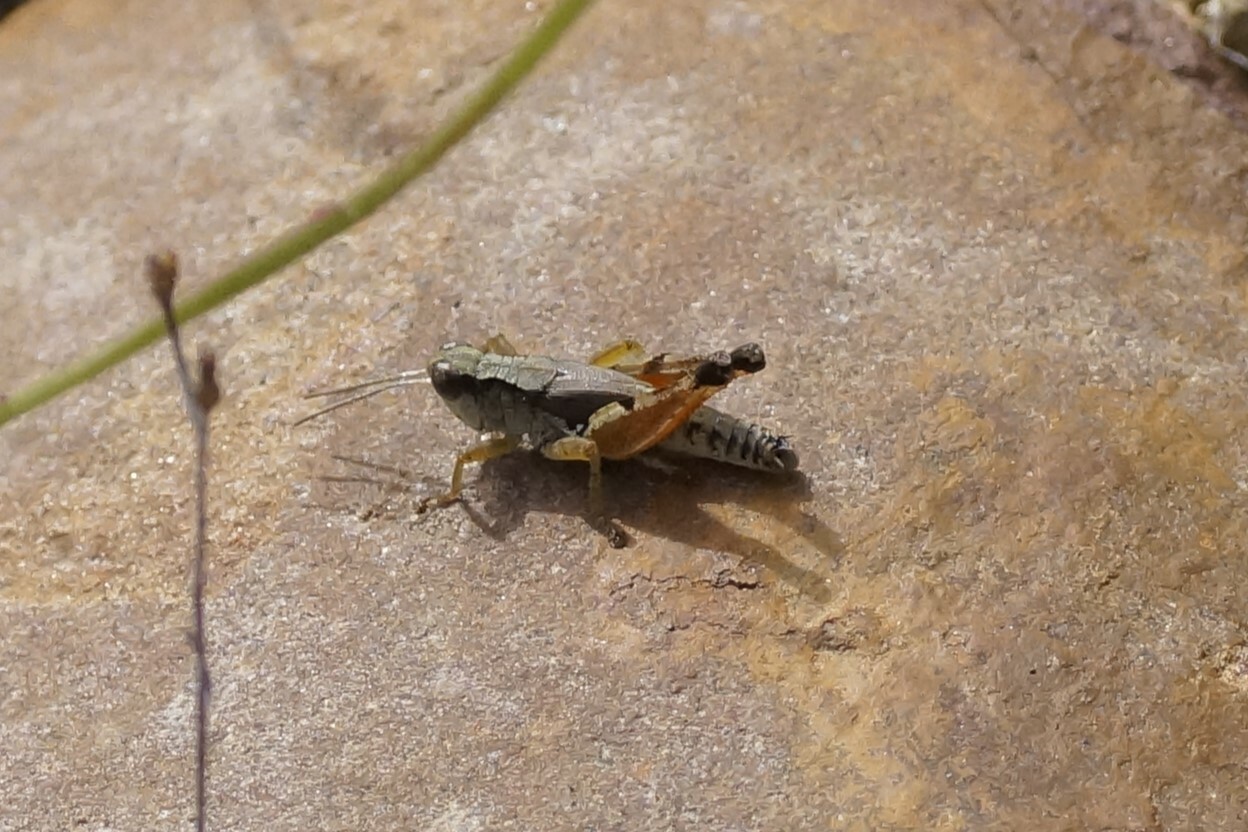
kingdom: Animalia
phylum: Arthropoda
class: Insecta
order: Orthoptera
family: Acrididae
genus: Phaulacridium
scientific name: Phaulacridium vittatum
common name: Wingless grasshopper
